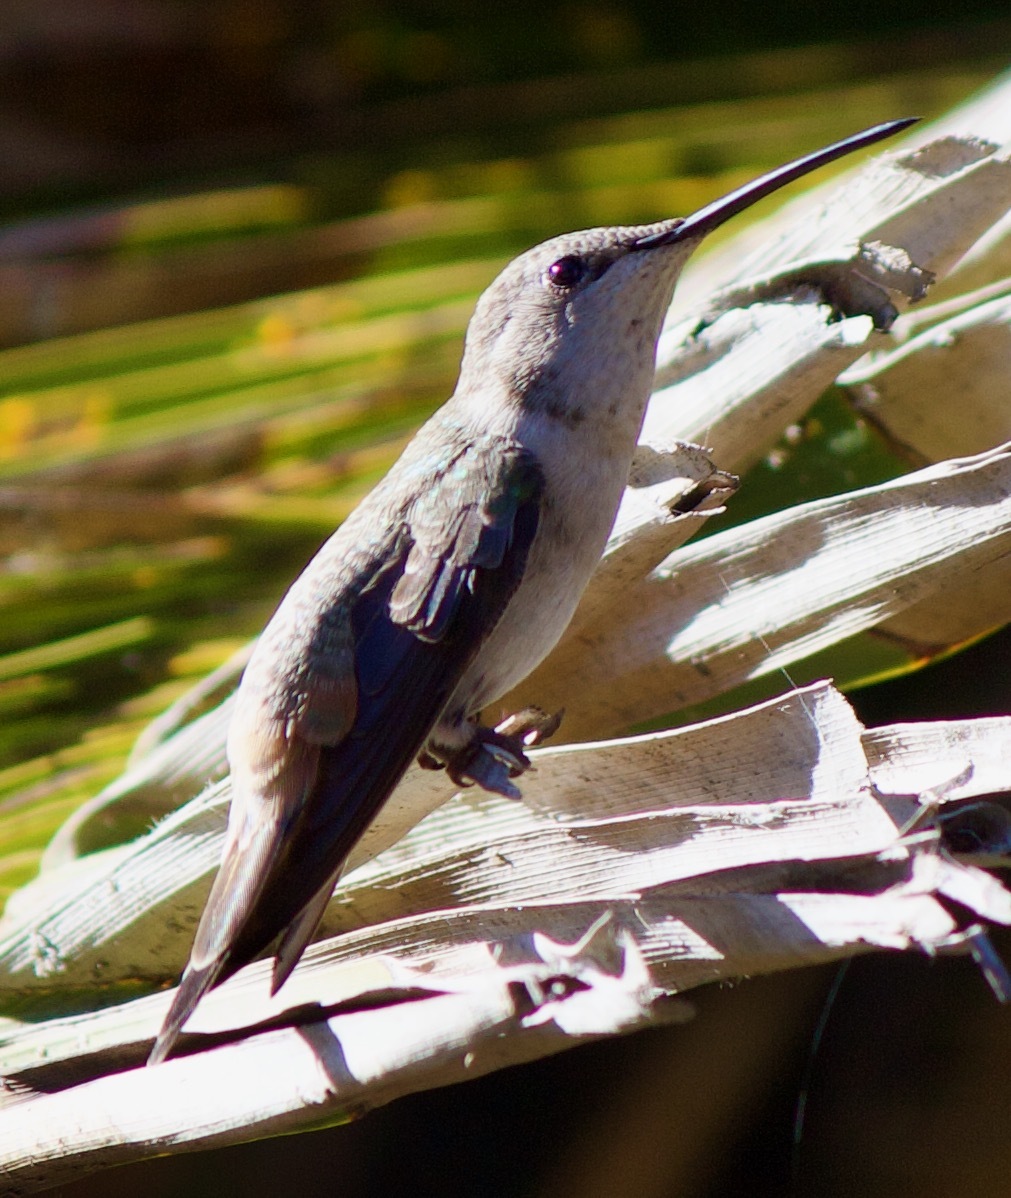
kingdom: Animalia
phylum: Chordata
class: Aves
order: Apodiformes
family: Trochilidae
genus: Rhodopis
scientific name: Rhodopis vesper
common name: Oasis hummingbird
